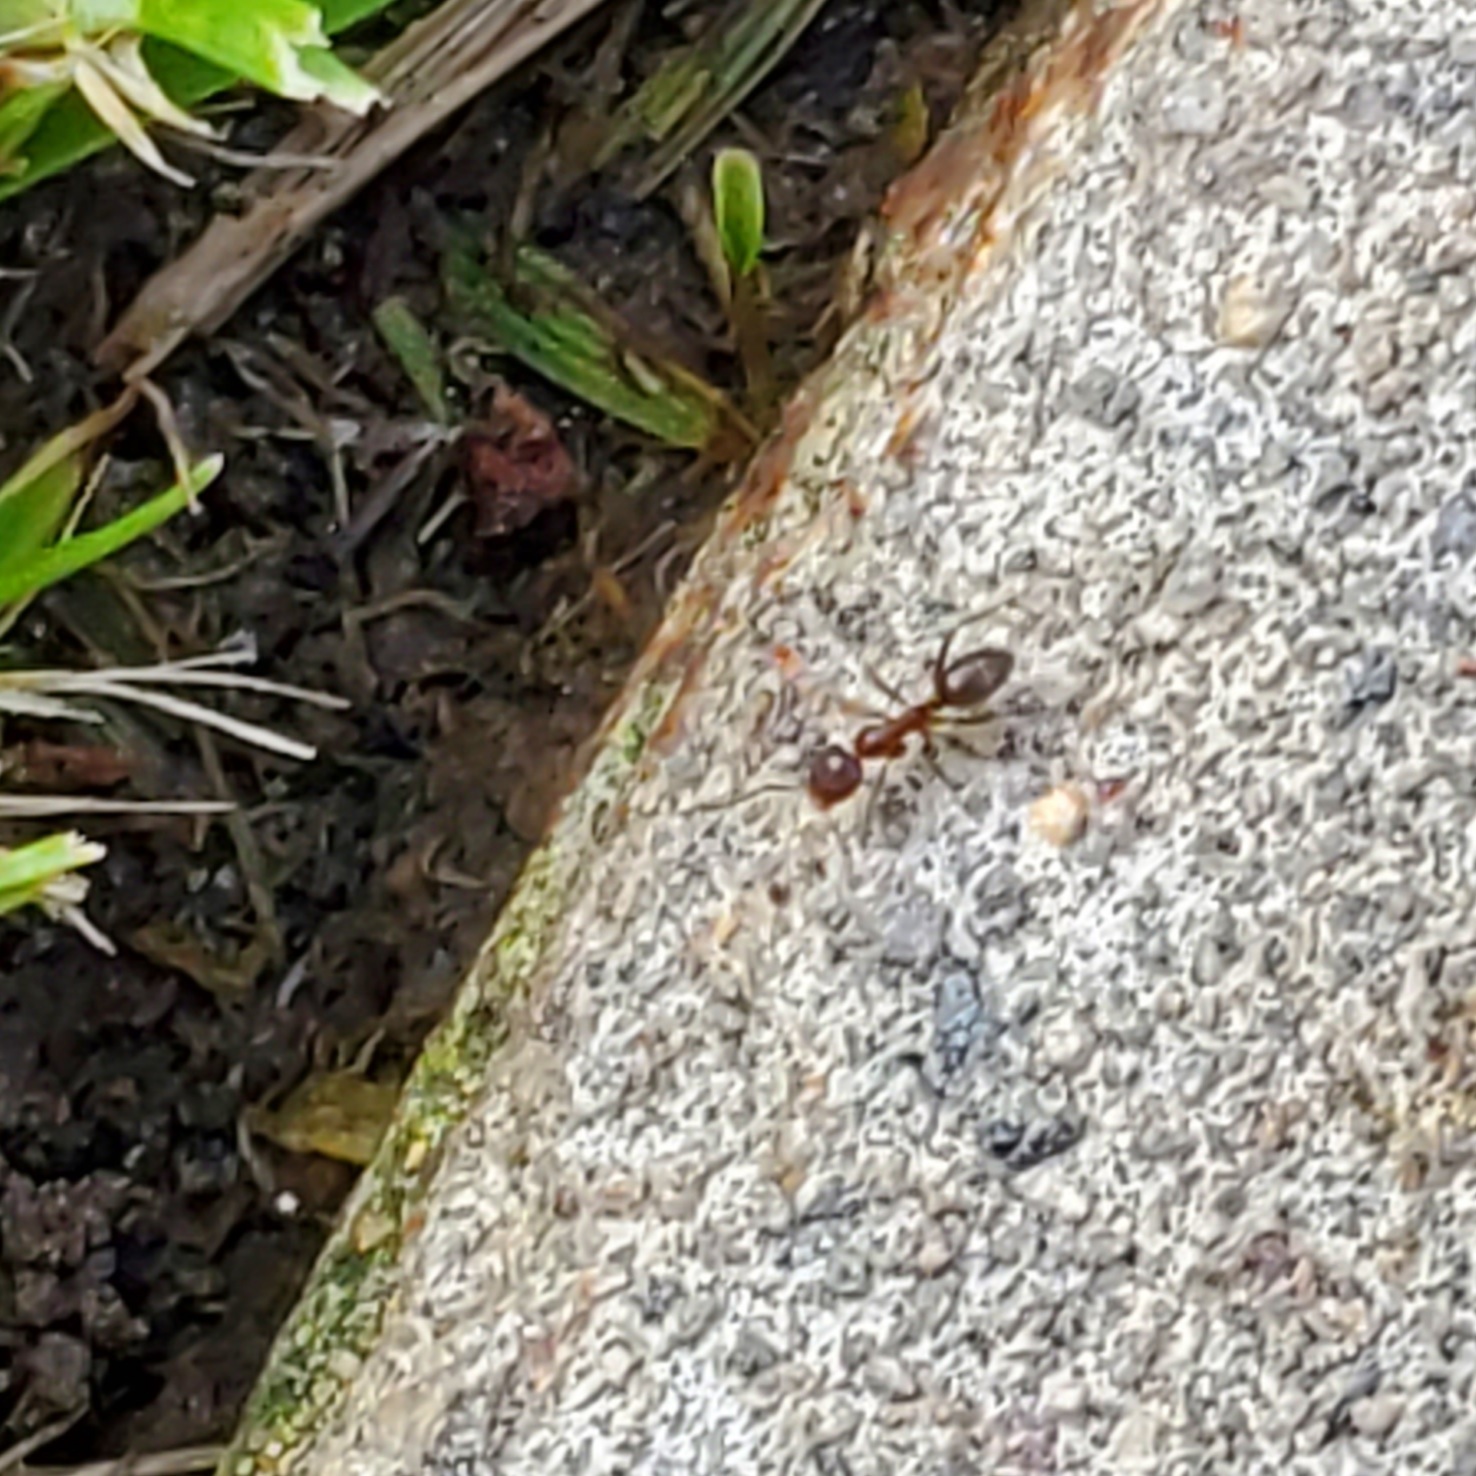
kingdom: Animalia
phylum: Arthropoda
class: Insecta
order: Hymenoptera
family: Formicidae
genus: Linepithema
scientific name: Linepithema humile
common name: Argentine ant
